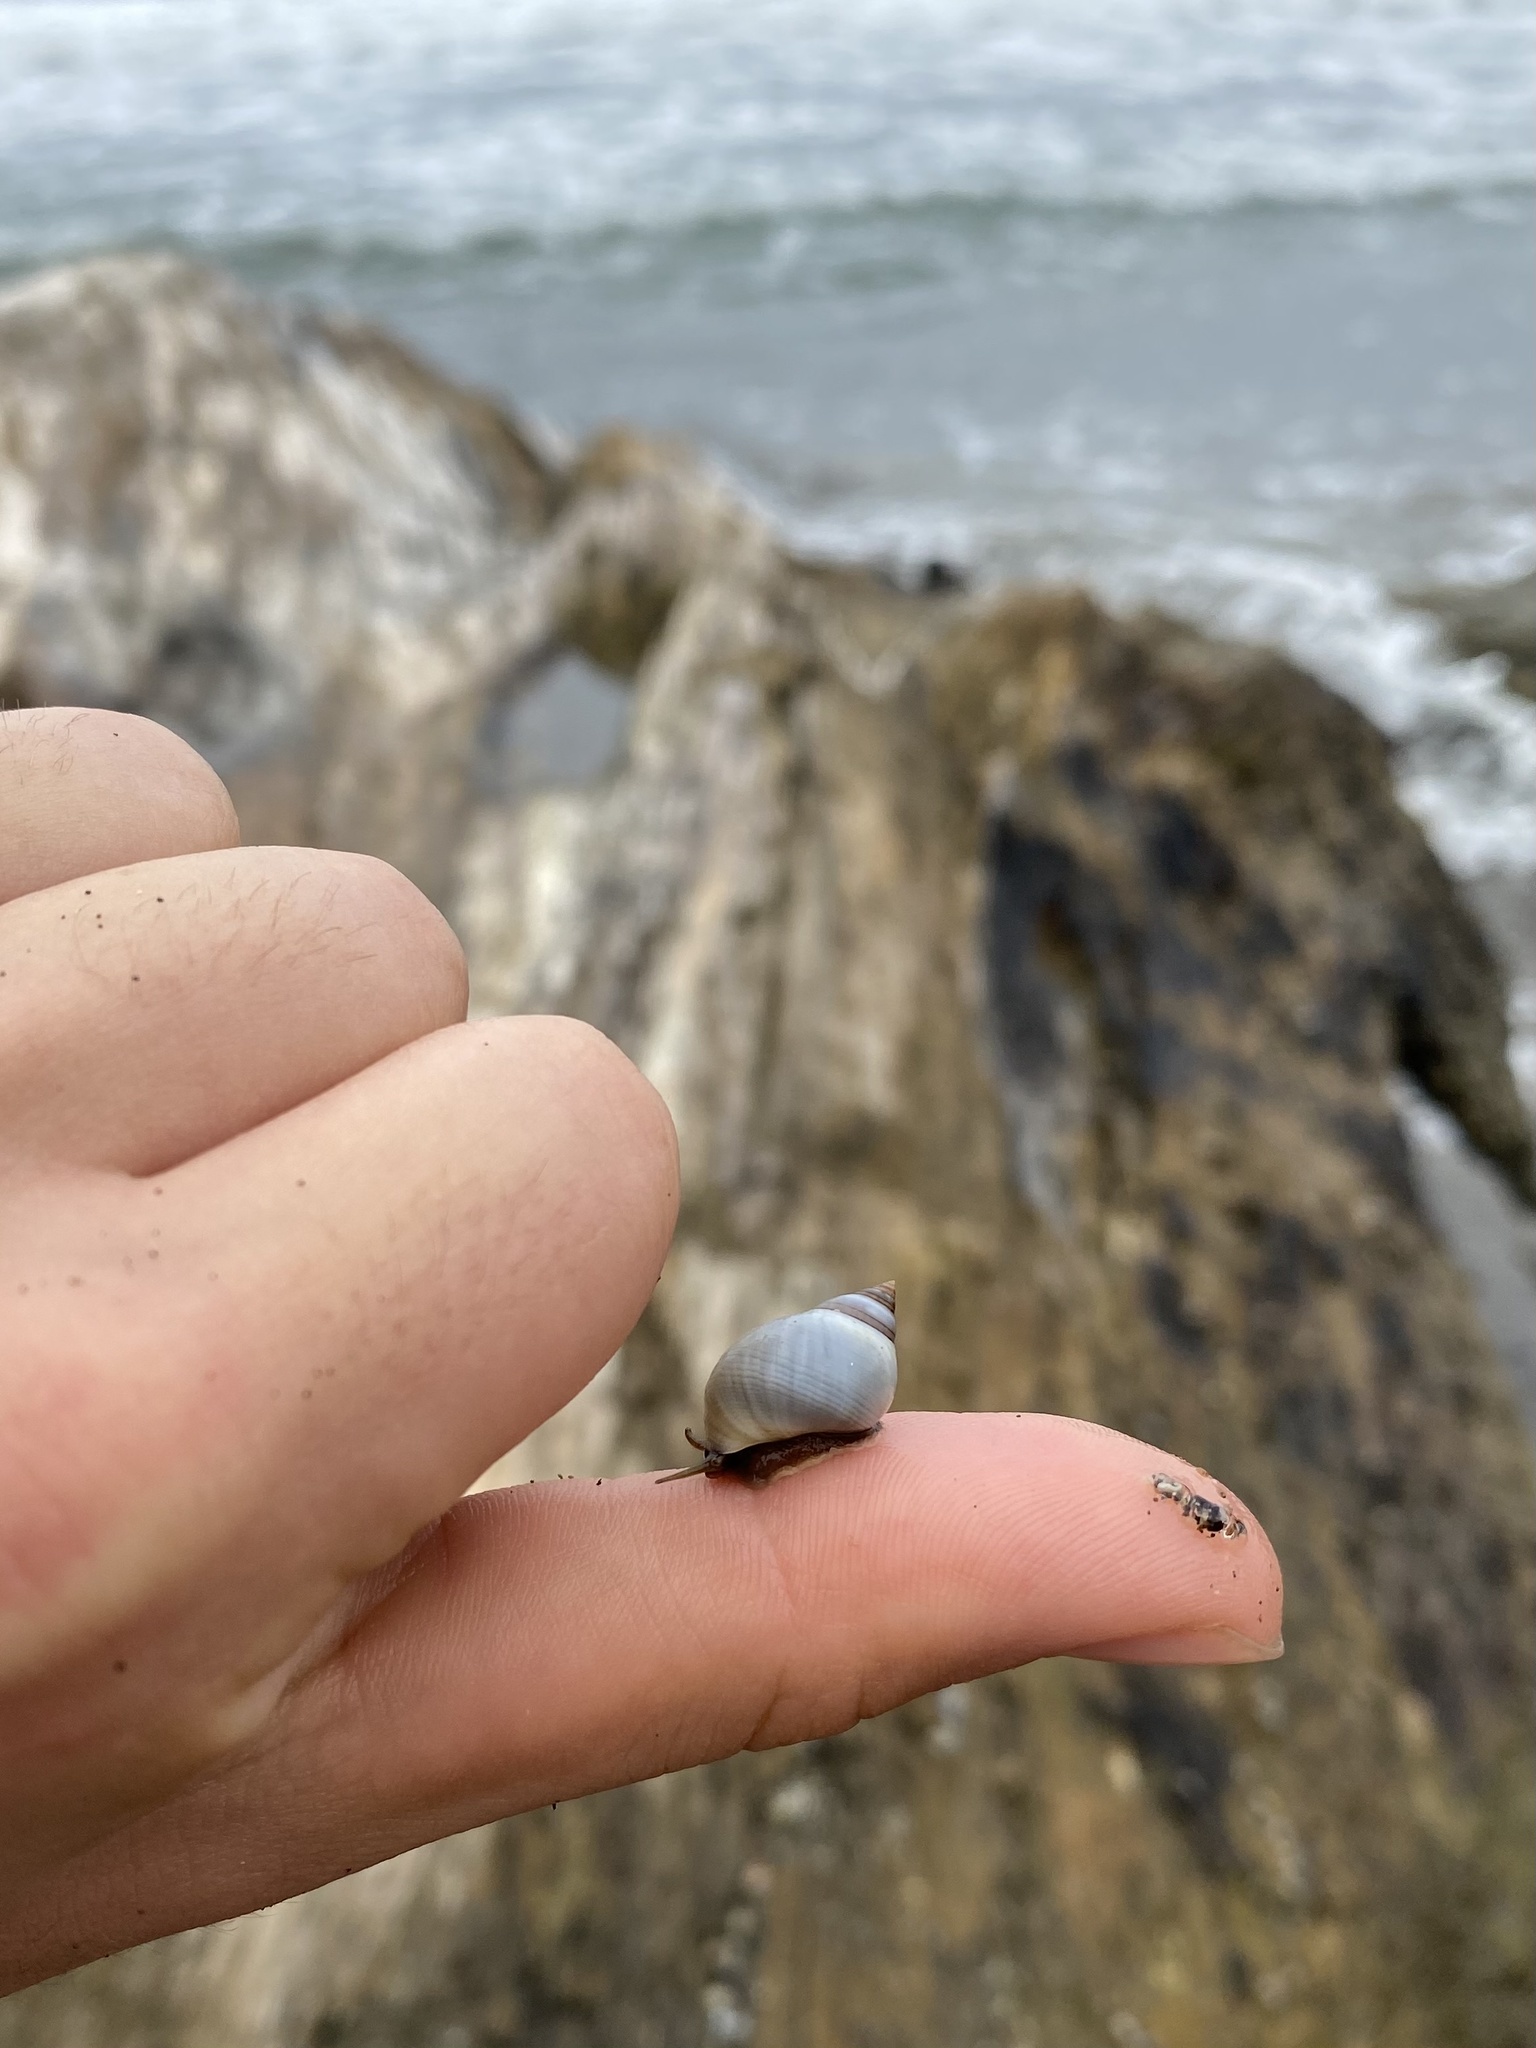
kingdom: Animalia
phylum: Mollusca
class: Gastropoda
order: Littorinimorpha
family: Littorinidae
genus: Littoraria
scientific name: Littoraria nebulosa
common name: Cloudy periwinkle
